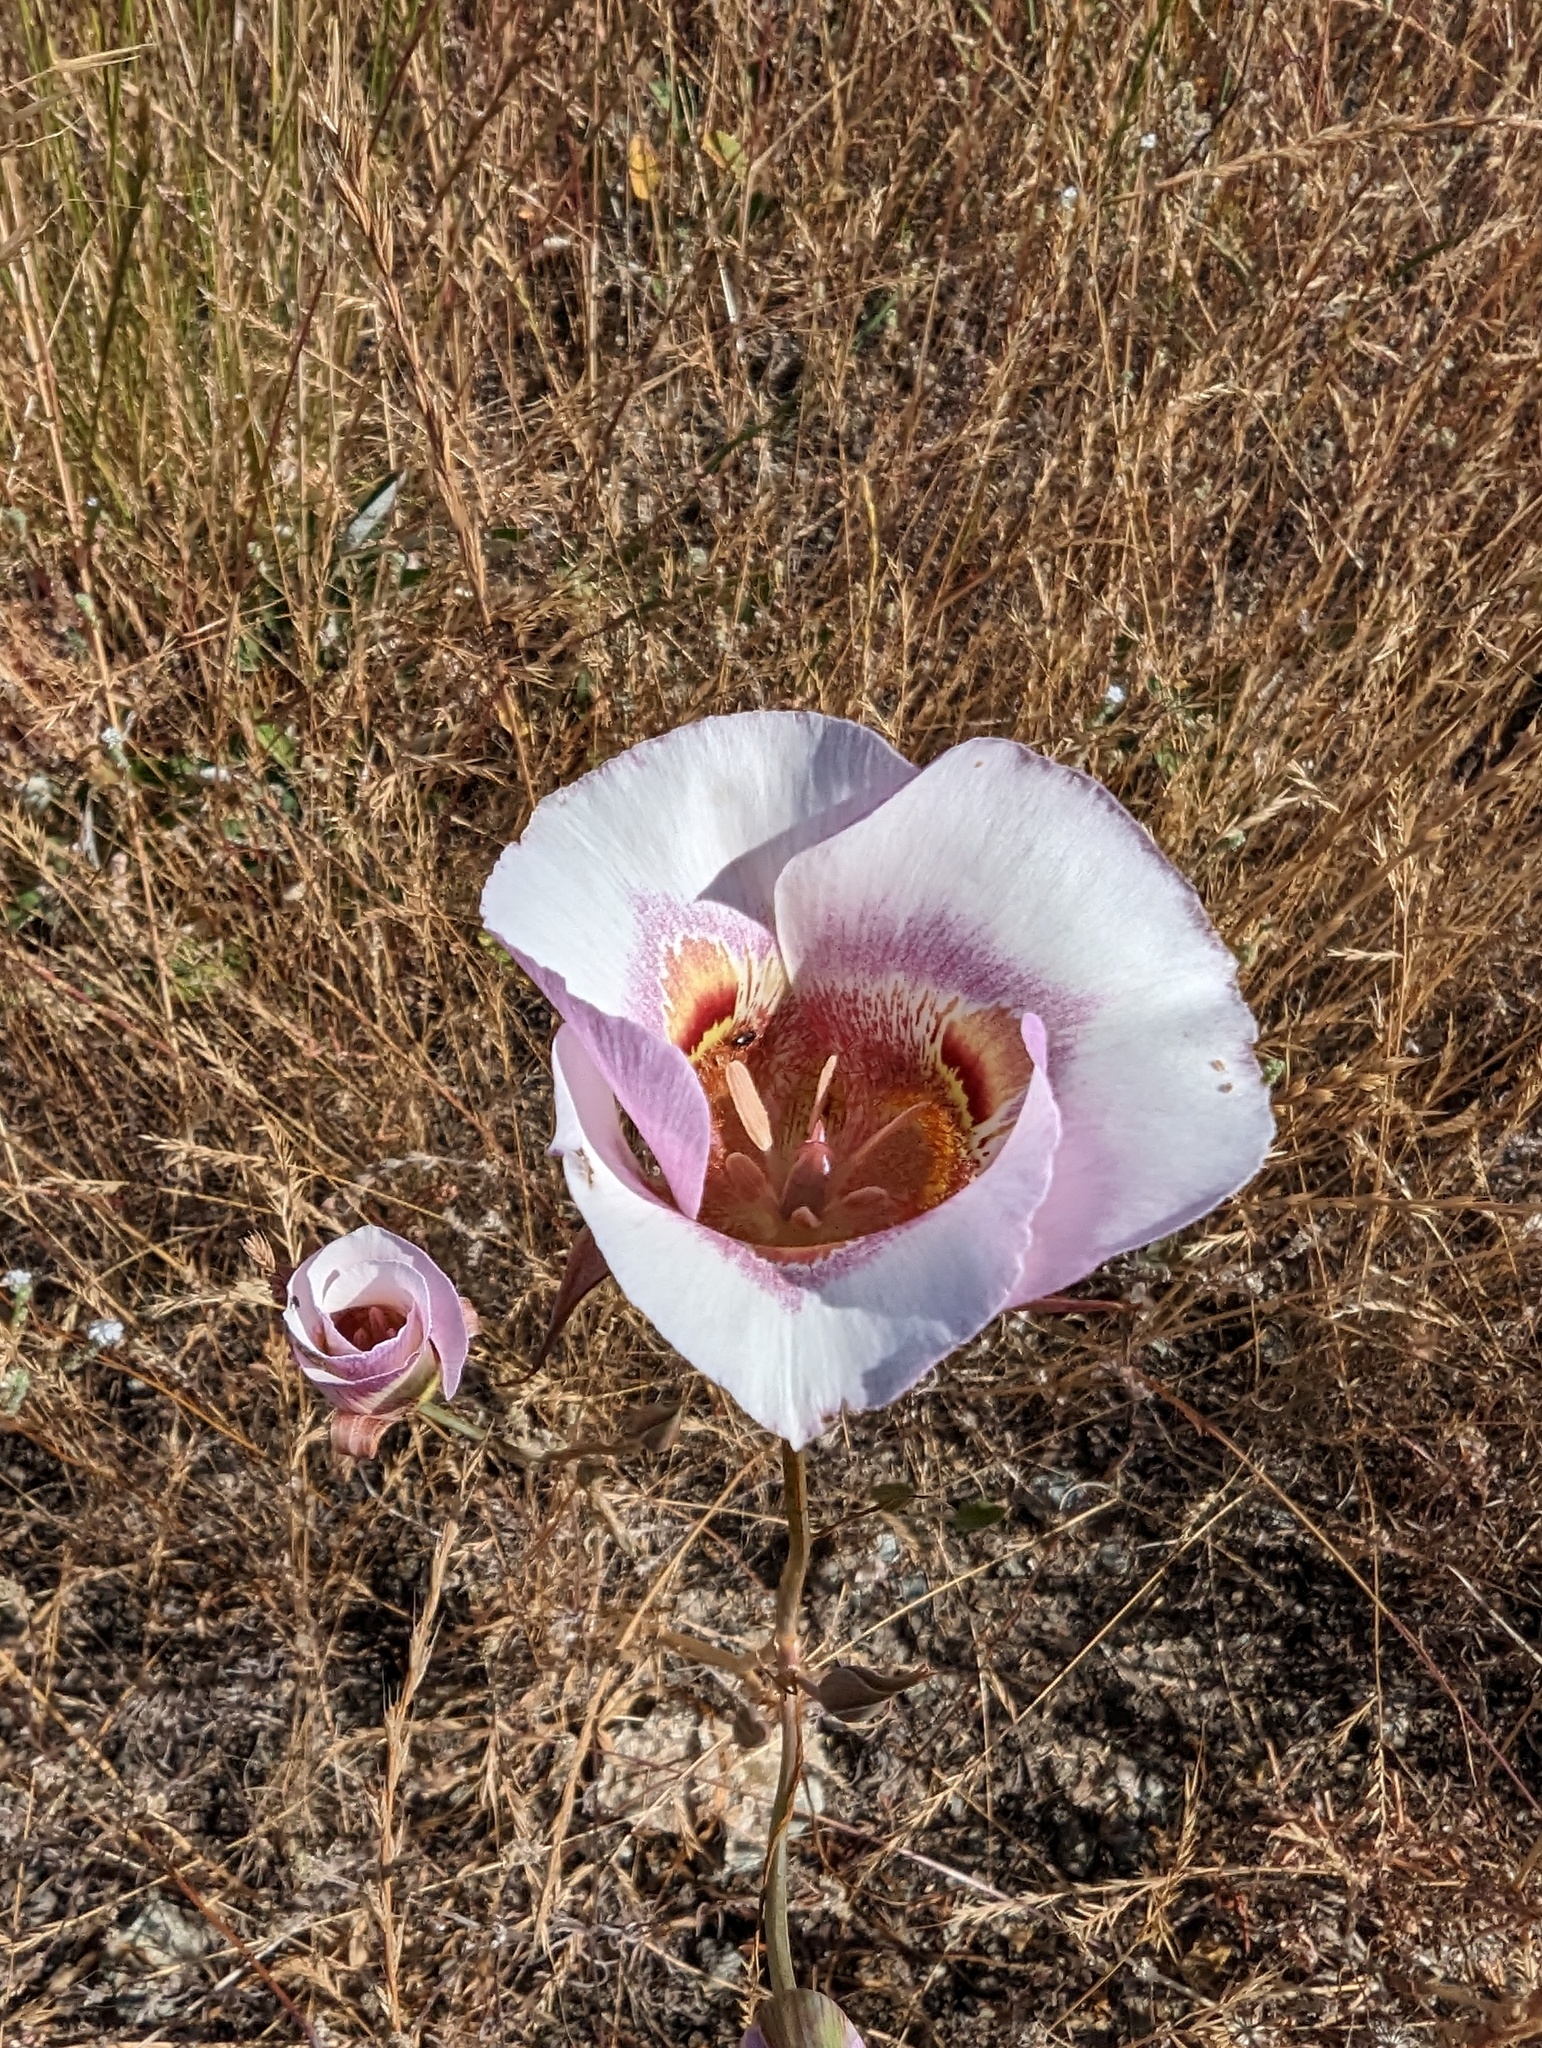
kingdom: Plantae
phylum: Tracheophyta
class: Liliopsida
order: Liliales
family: Liliaceae
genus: Calochortus
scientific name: Calochortus argillosus
